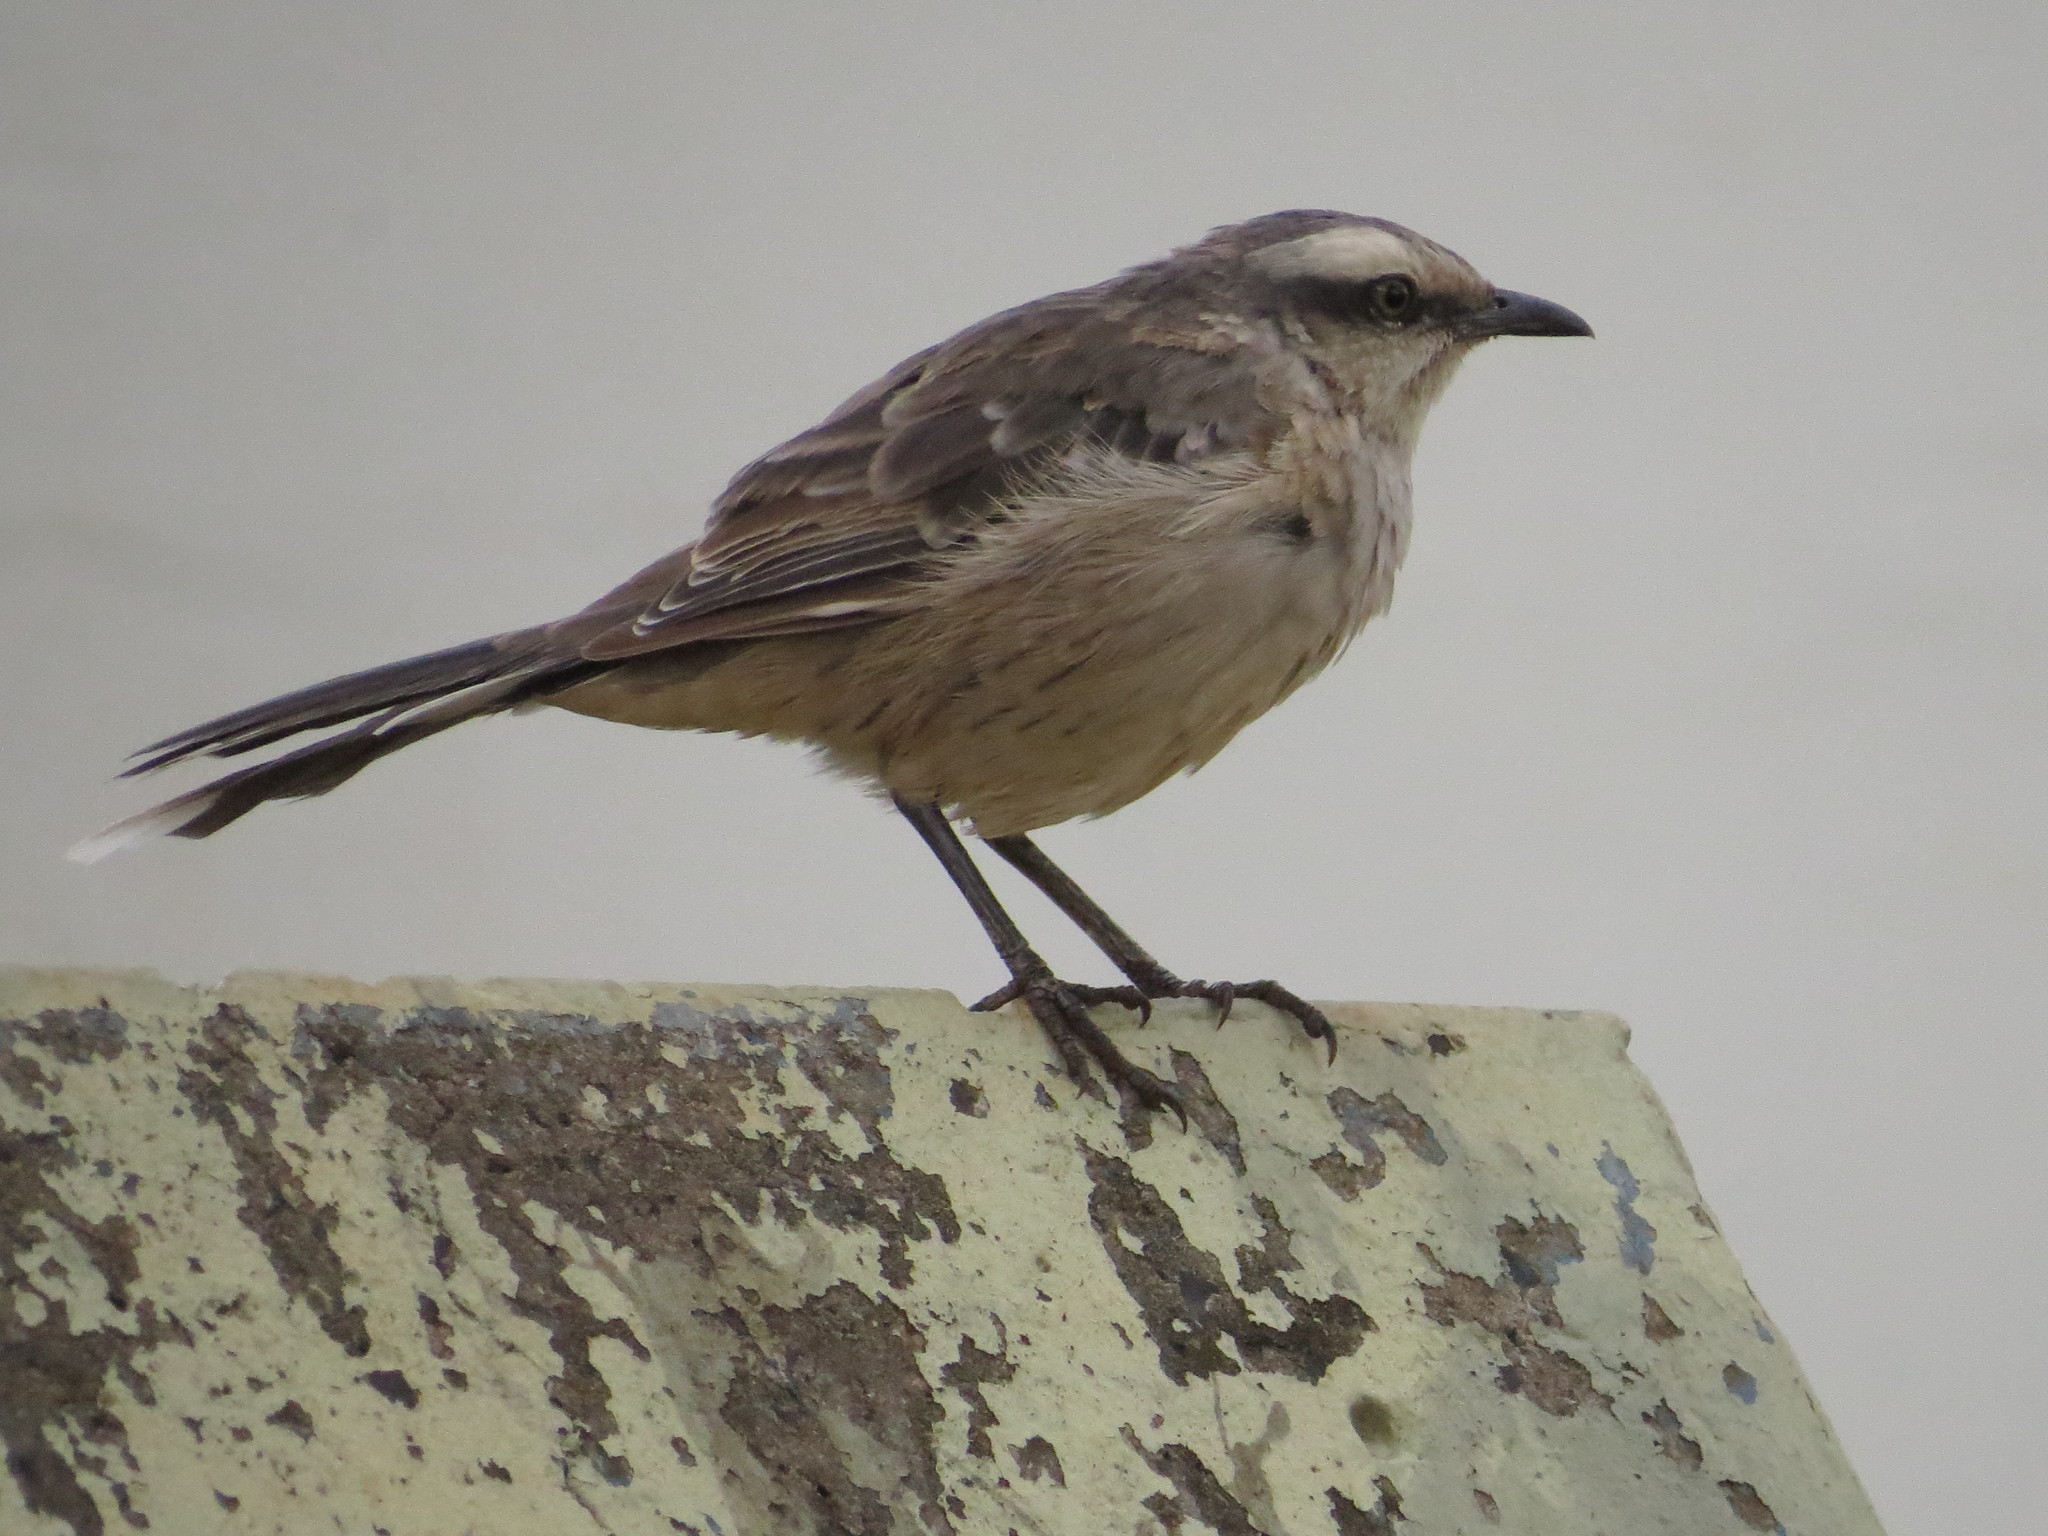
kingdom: Animalia
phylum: Chordata
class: Aves
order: Passeriformes
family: Mimidae
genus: Mimus
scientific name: Mimus saturninus
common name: Chalk-browed mockingbird
